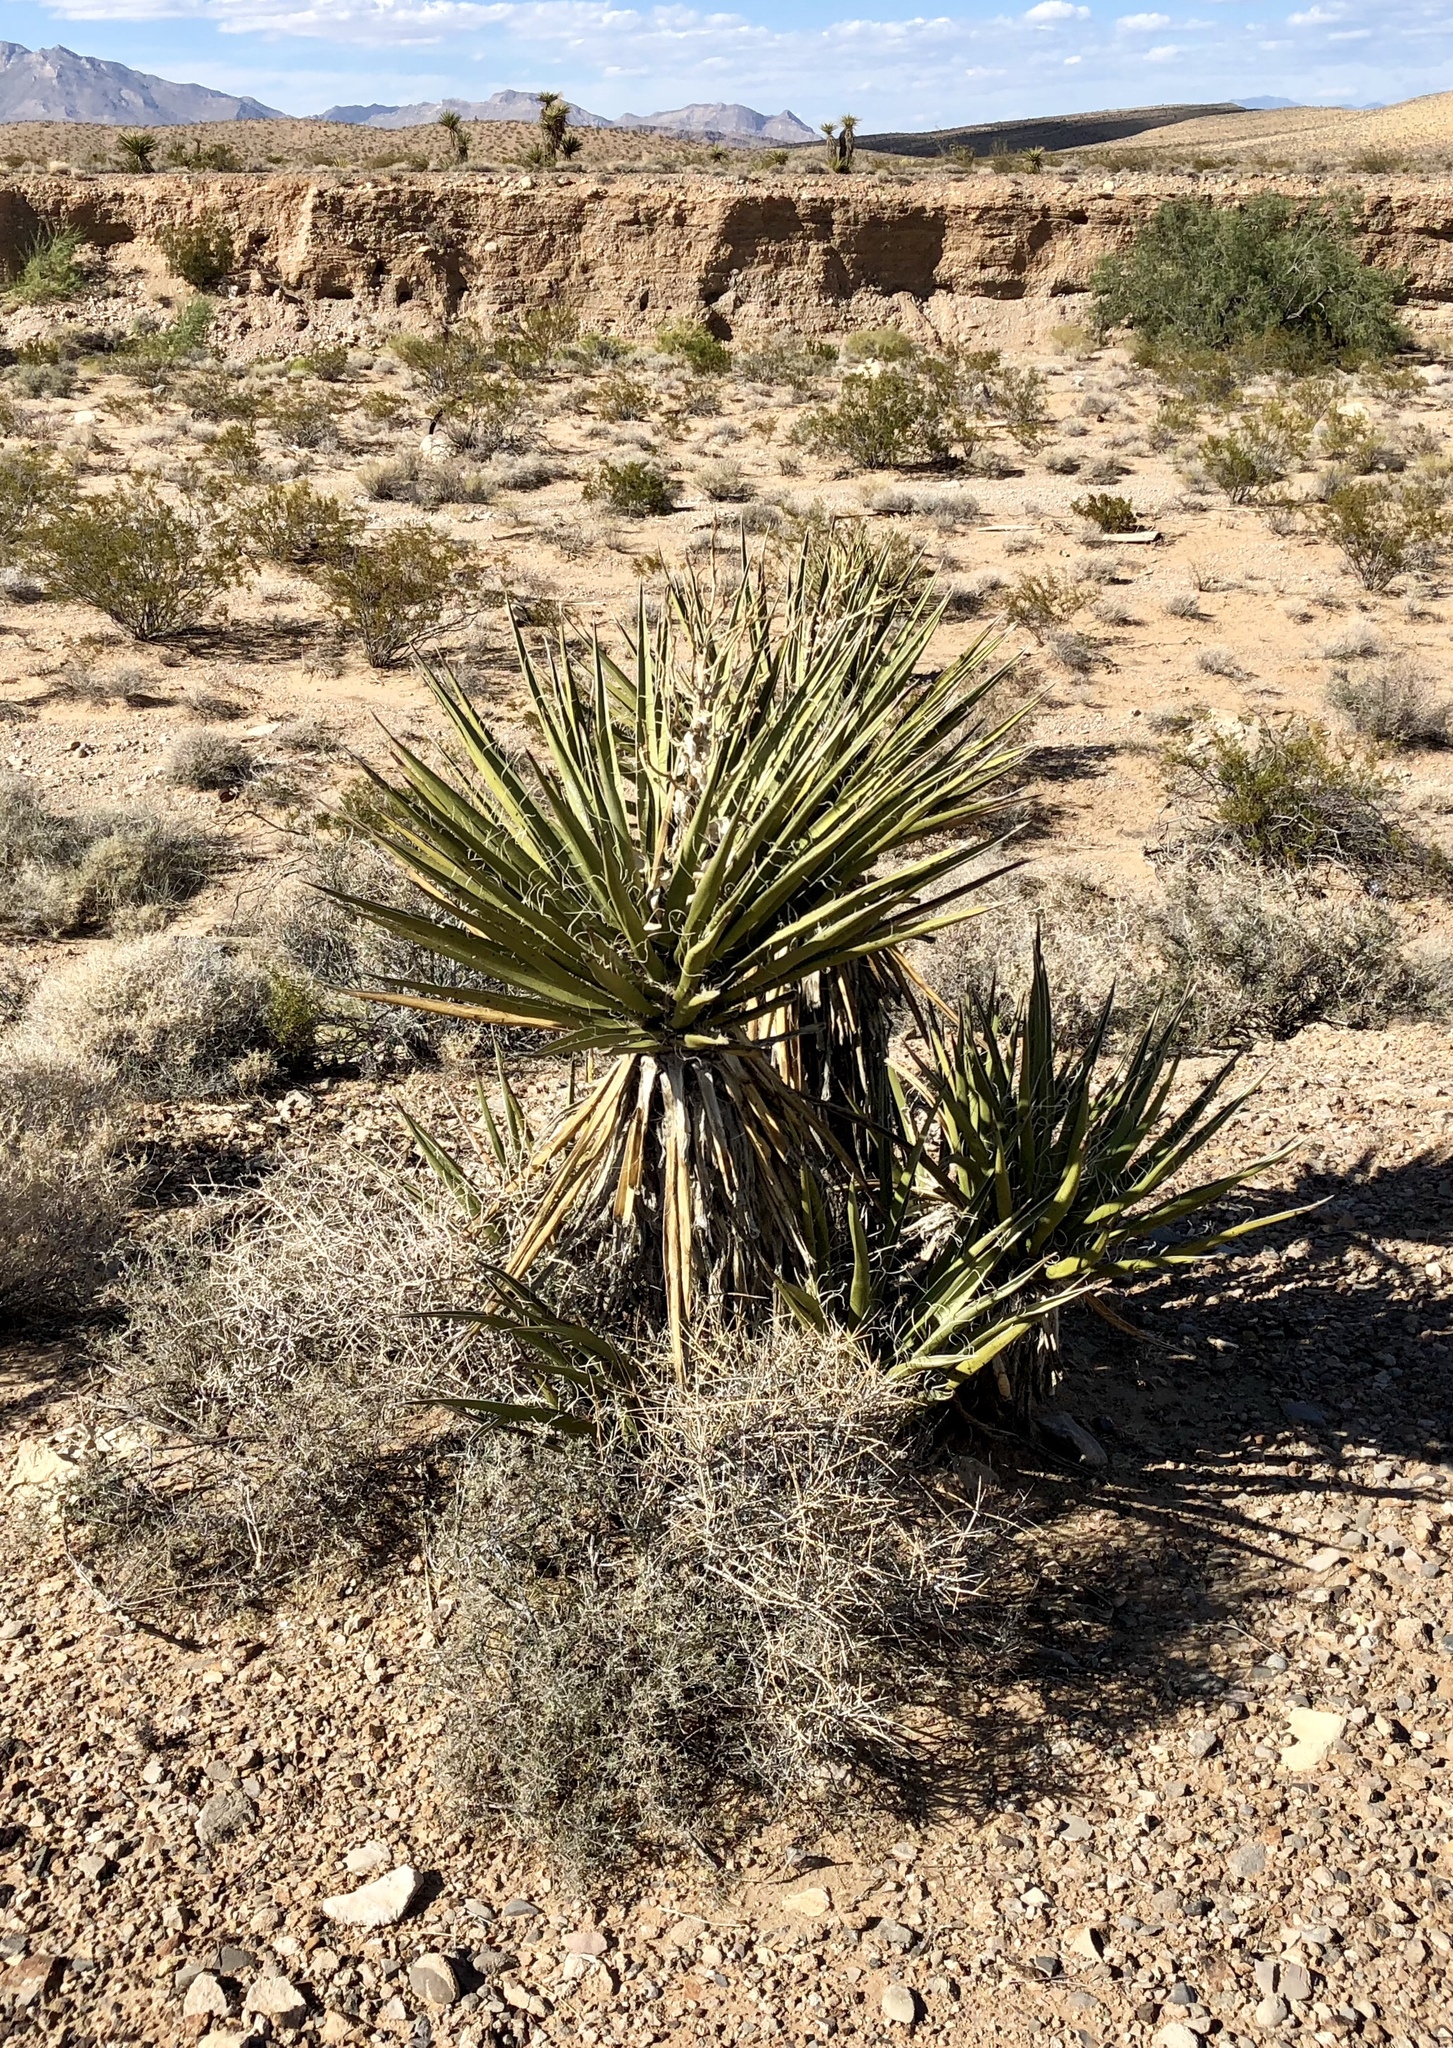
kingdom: Plantae
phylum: Tracheophyta
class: Liliopsida
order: Asparagales
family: Asparagaceae
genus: Yucca
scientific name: Yucca schidigera
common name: Mojave yucca
